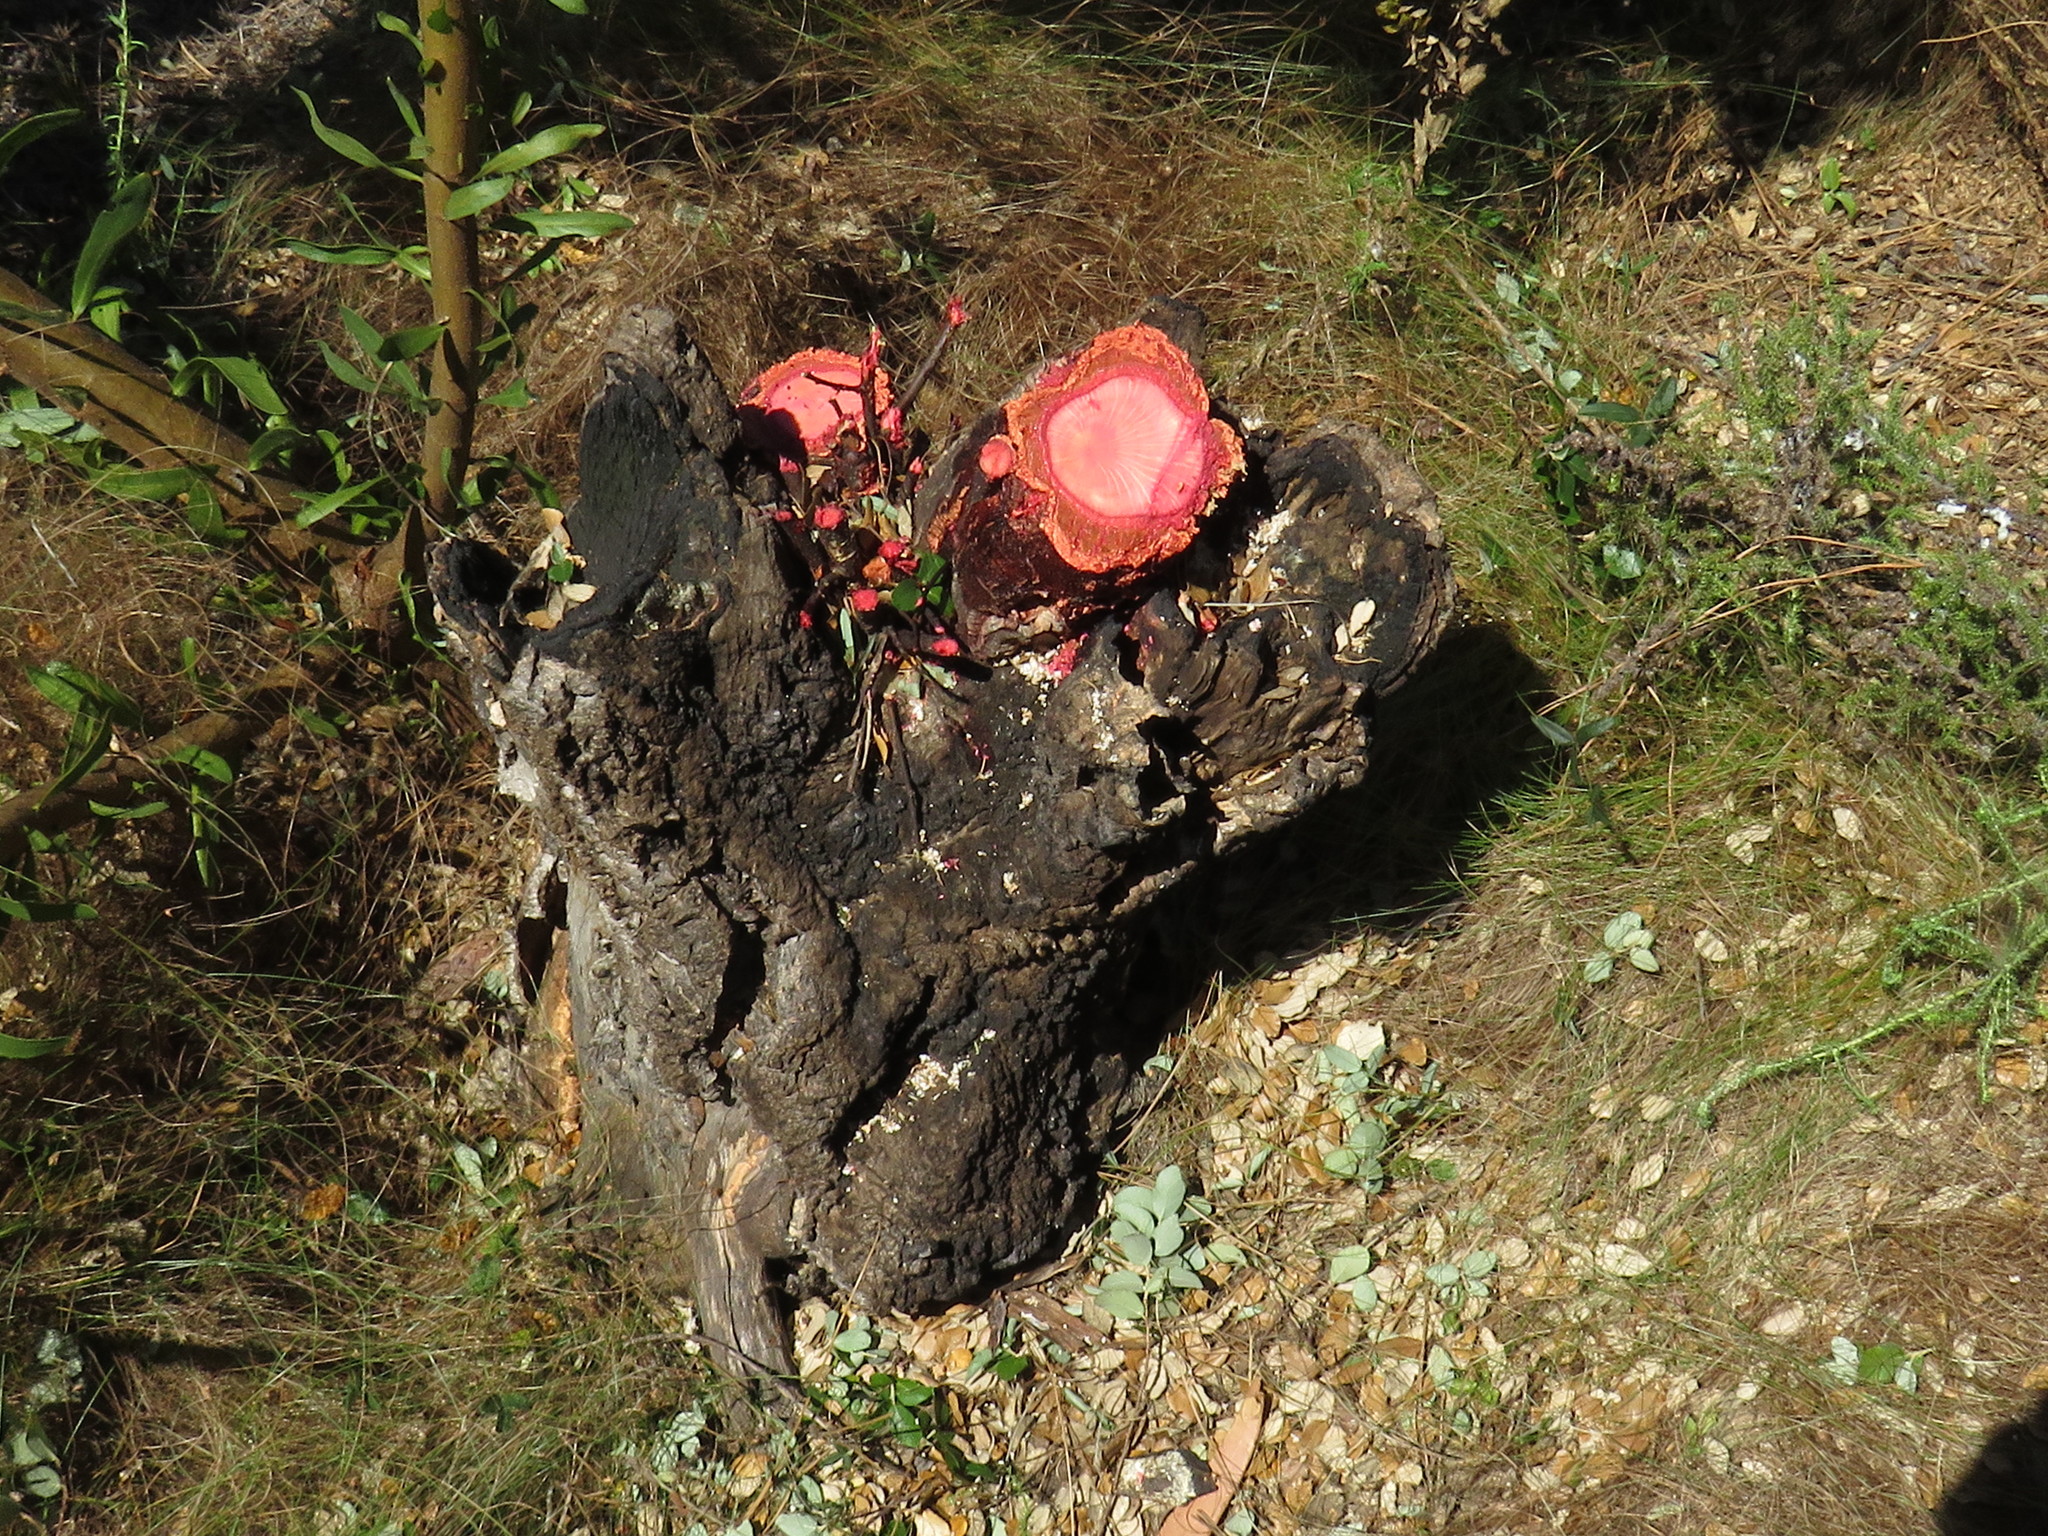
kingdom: Plantae
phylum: Tracheophyta
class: Magnoliopsida
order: Proteales
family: Proteaceae
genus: Protea
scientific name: Protea lepidocarpodendron
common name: Black-bearded protea
